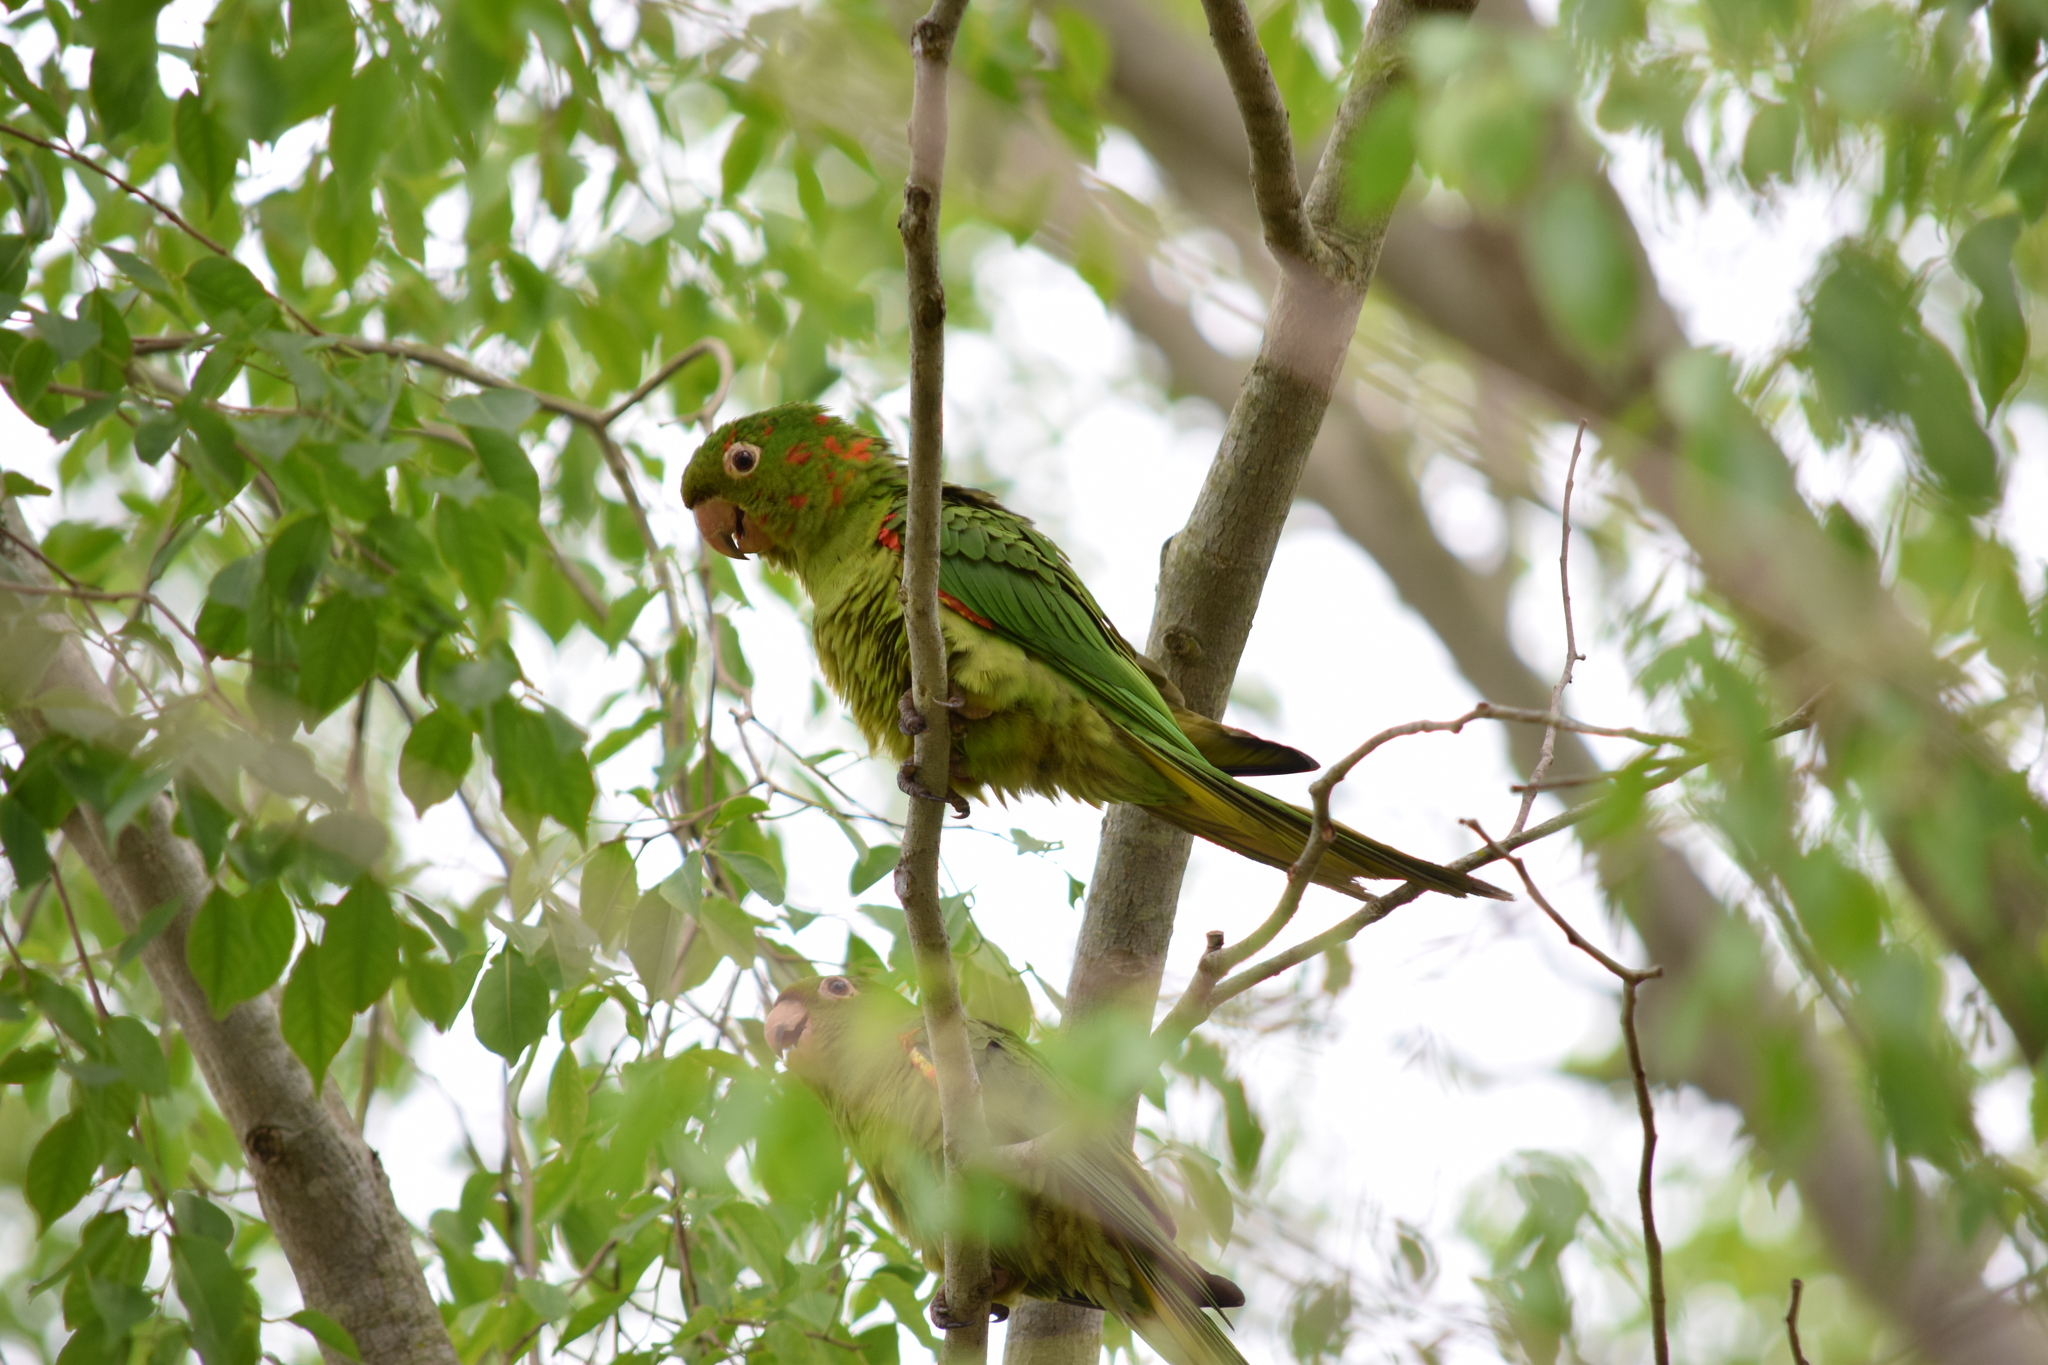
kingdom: Animalia
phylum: Chordata
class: Aves
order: Psittaciformes
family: Psittacidae
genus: Aratinga
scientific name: Aratinga leucophthalma
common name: White-eyed parakeet
